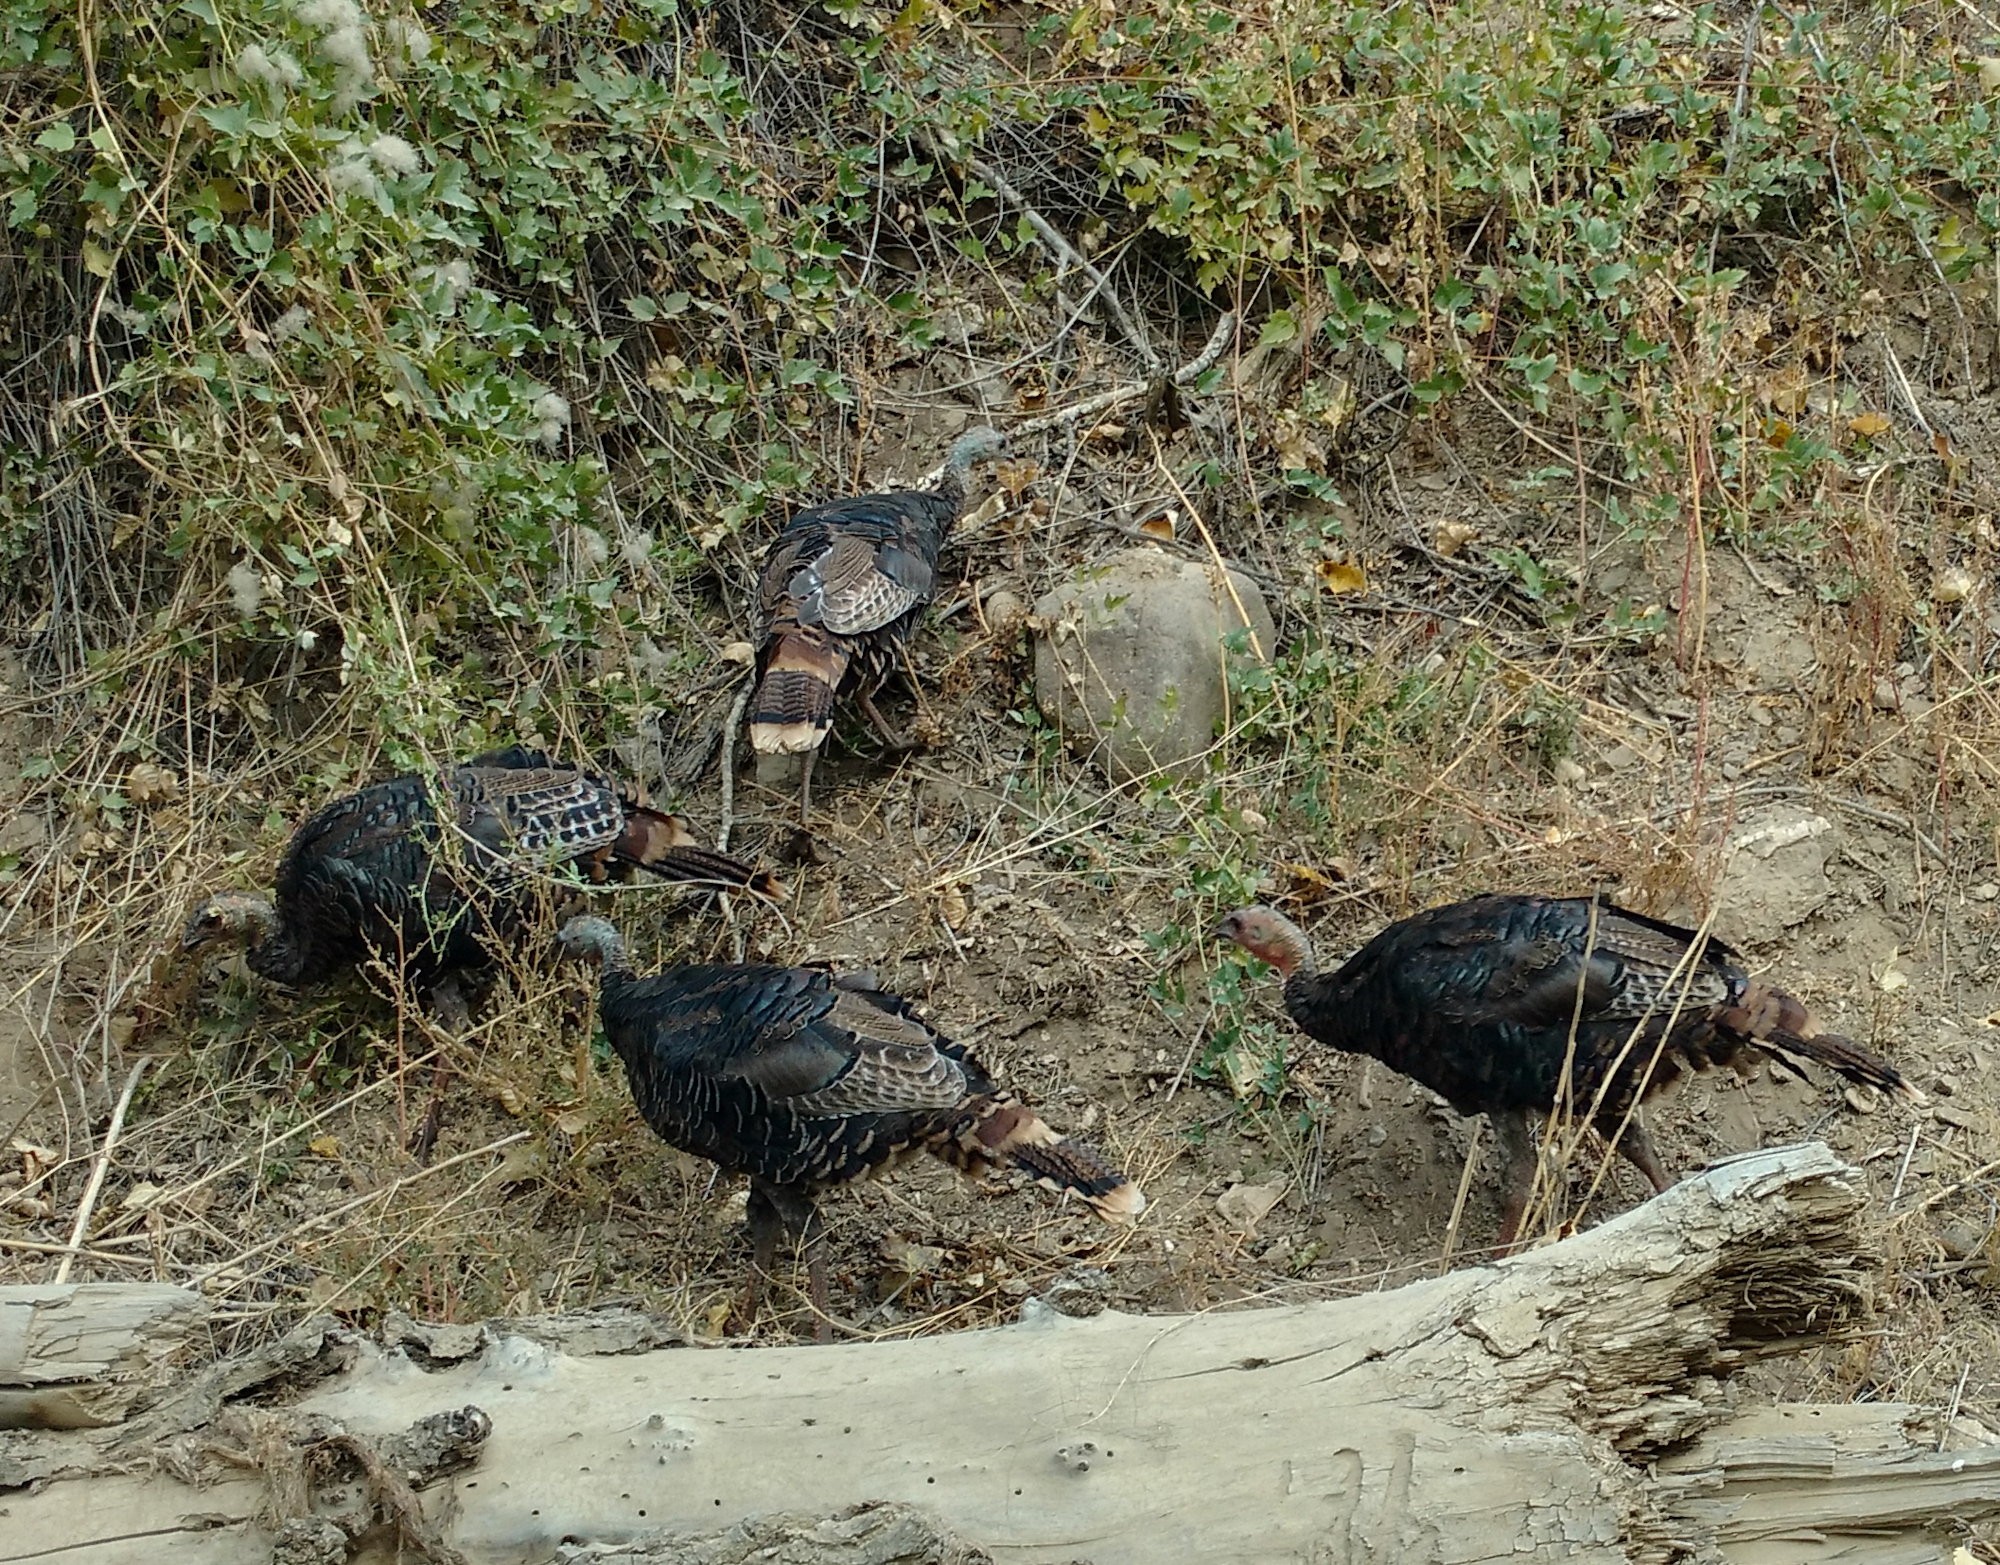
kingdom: Animalia
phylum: Chordata
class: Aves
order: Galliformes
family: Phasianidae
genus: Meleagris
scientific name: Meleagris gallopavo
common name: Wild turkey
